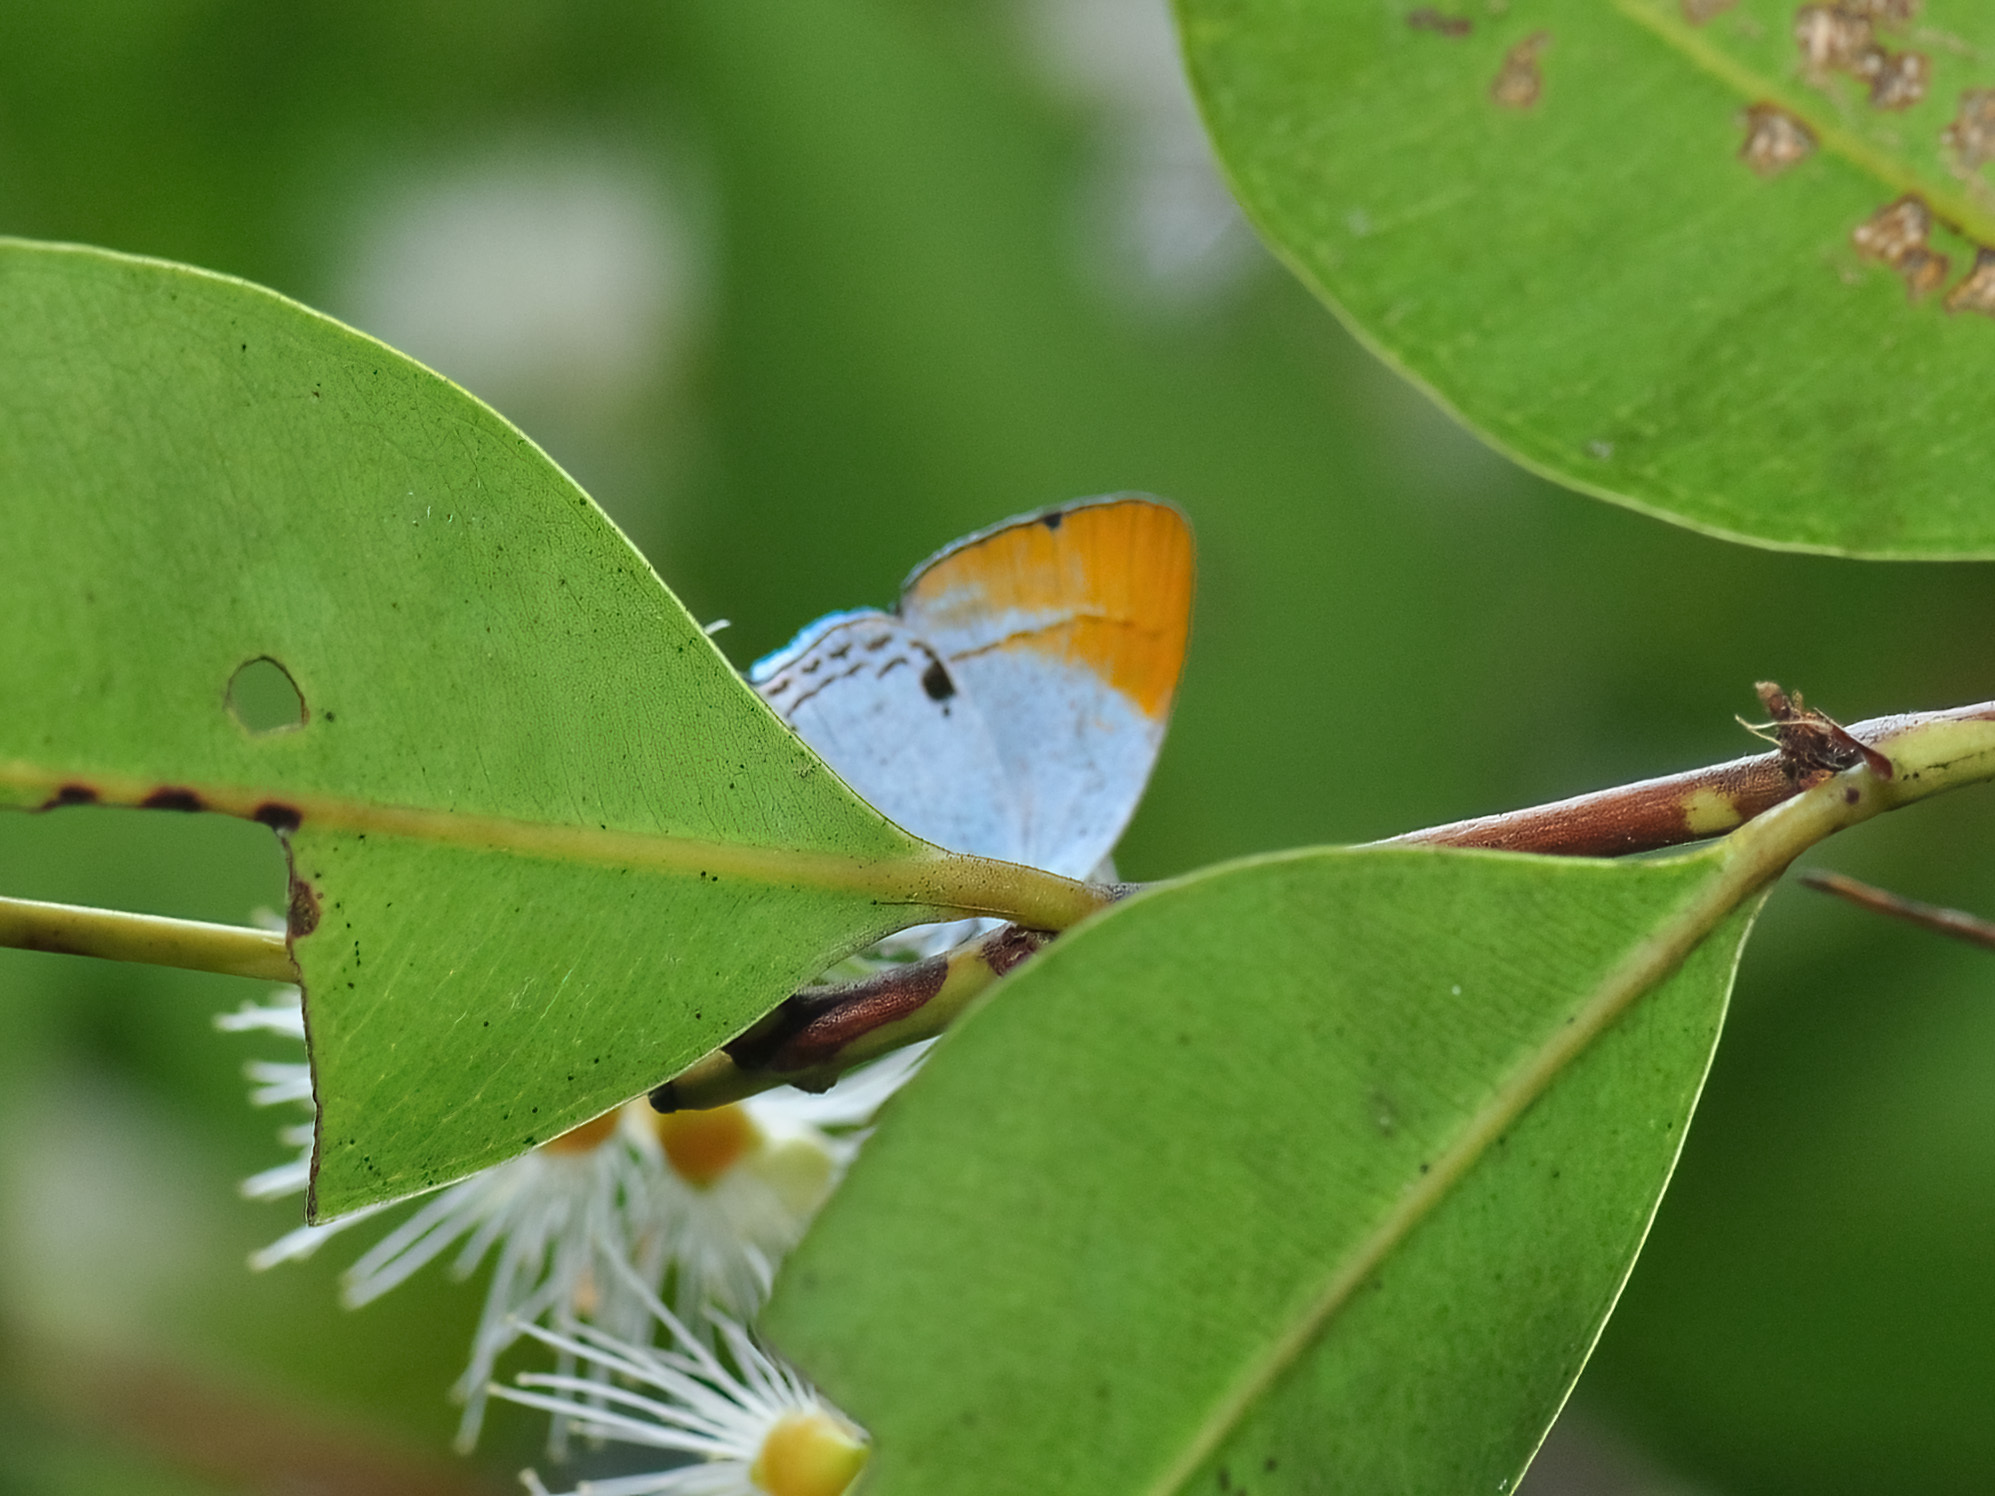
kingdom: Animalia
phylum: Arthropoda
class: Insecta
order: Lepidoptera
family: Lycaenidae
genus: Suasa
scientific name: Suasa lisides
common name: Red imperial
